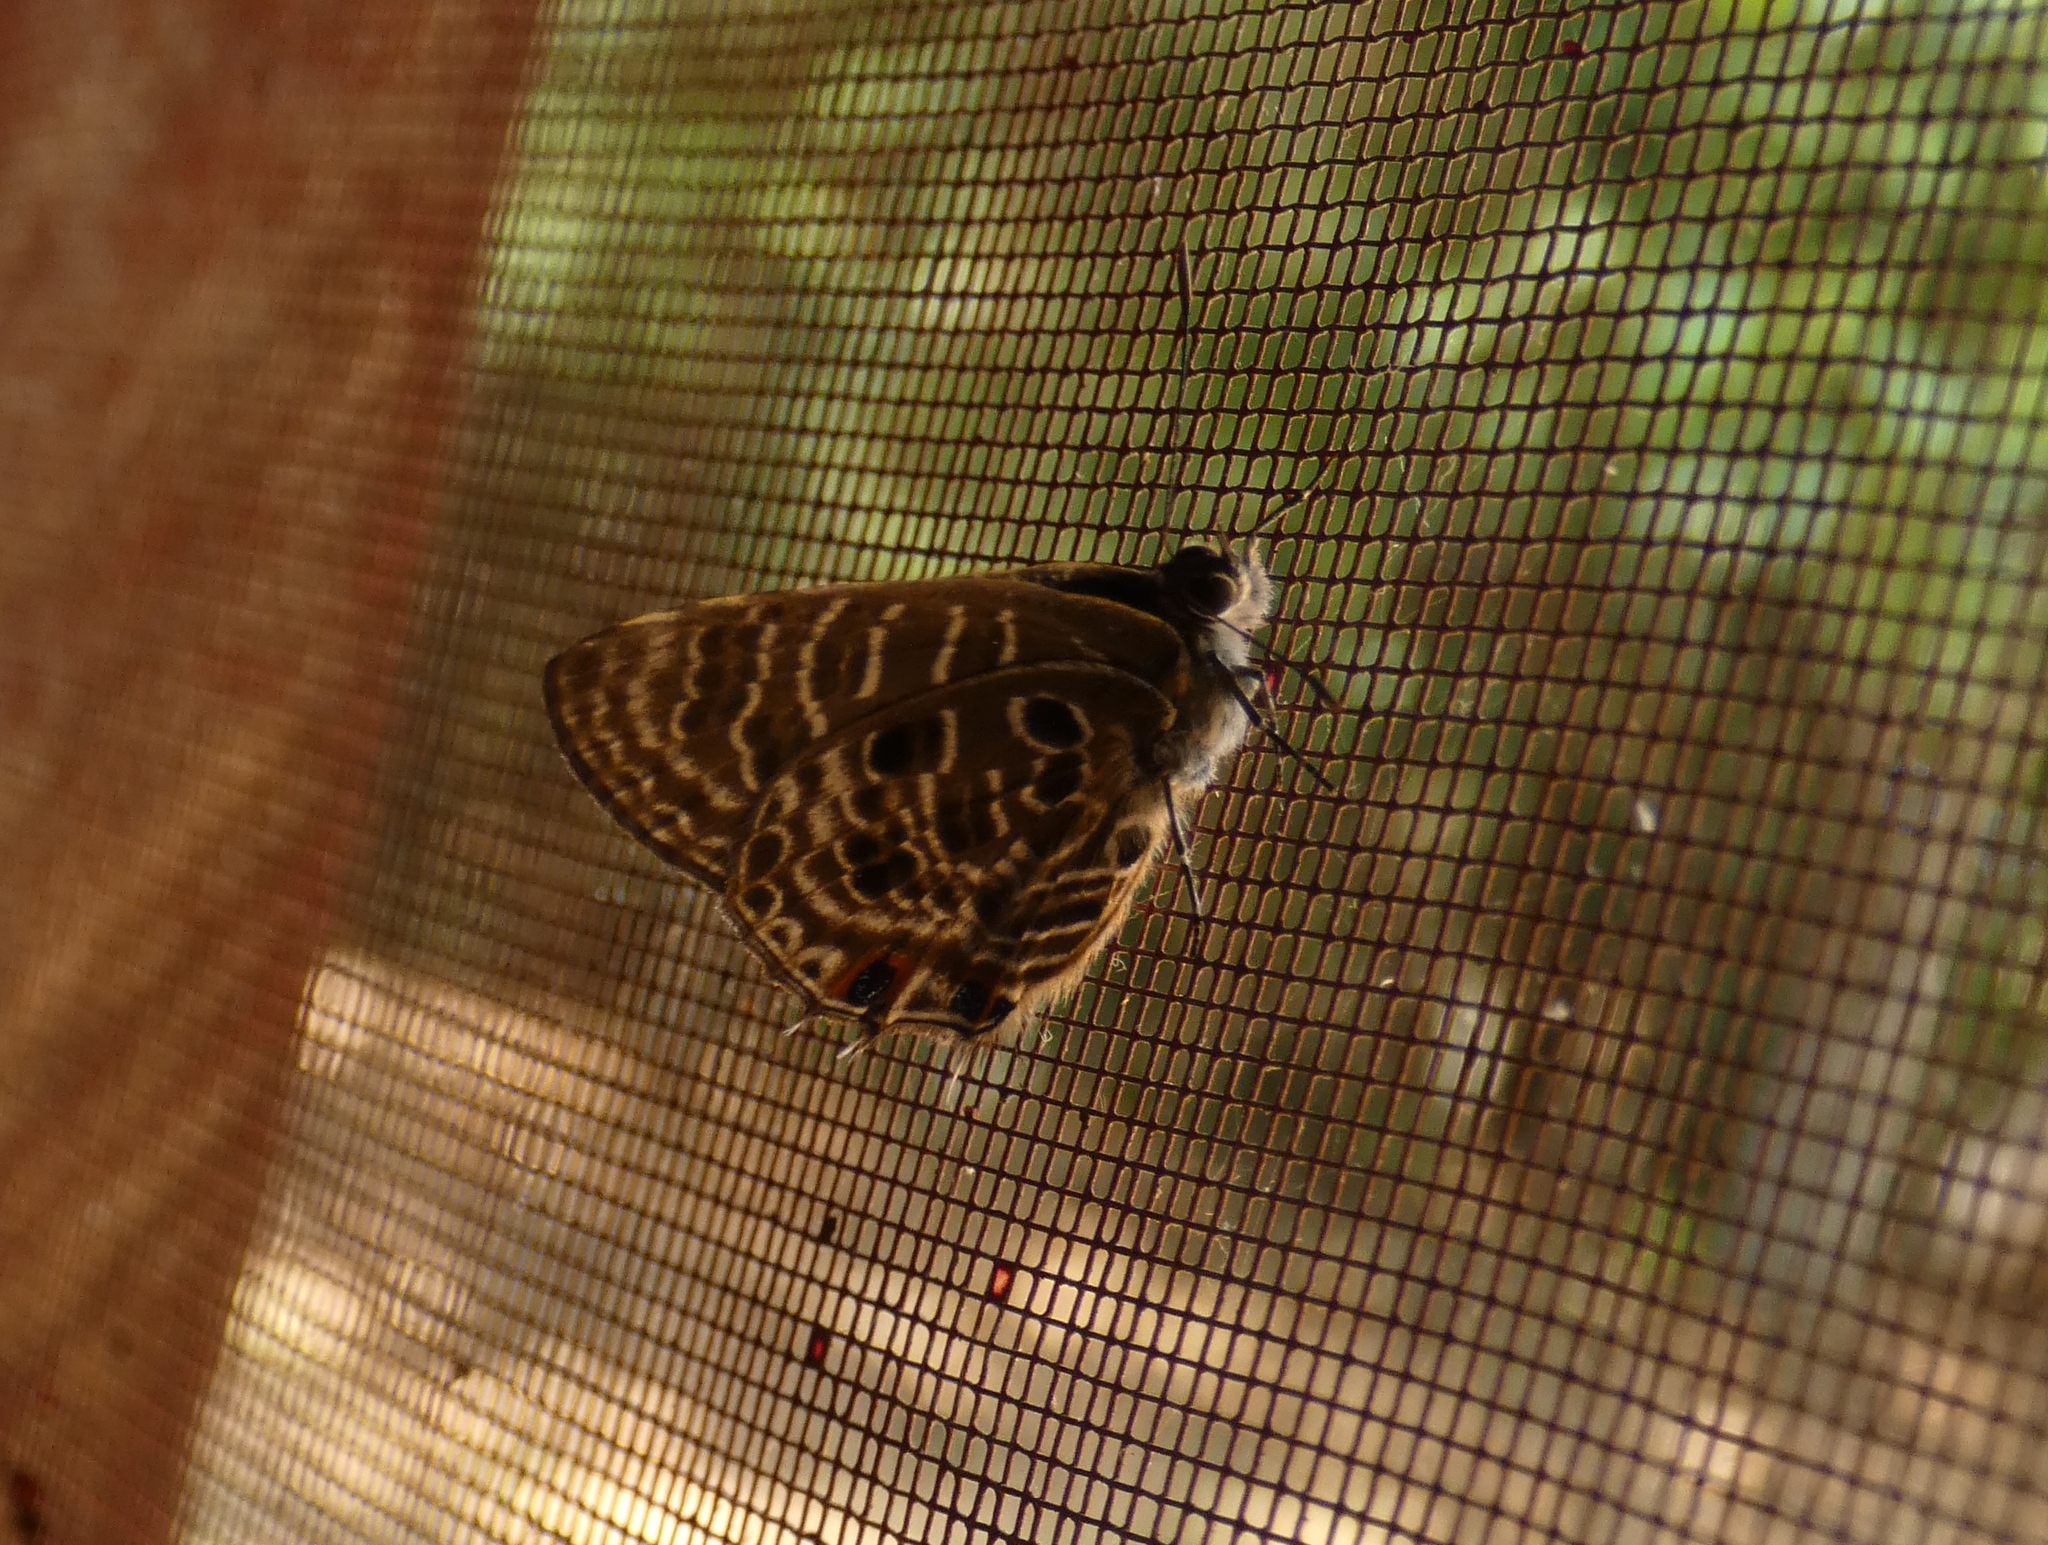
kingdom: Animalia
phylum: Arthropoda
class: Insecta
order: Lepidoptera
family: Lycaenidae
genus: Anthene
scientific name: Anthene larydas
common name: Forest hairtail
